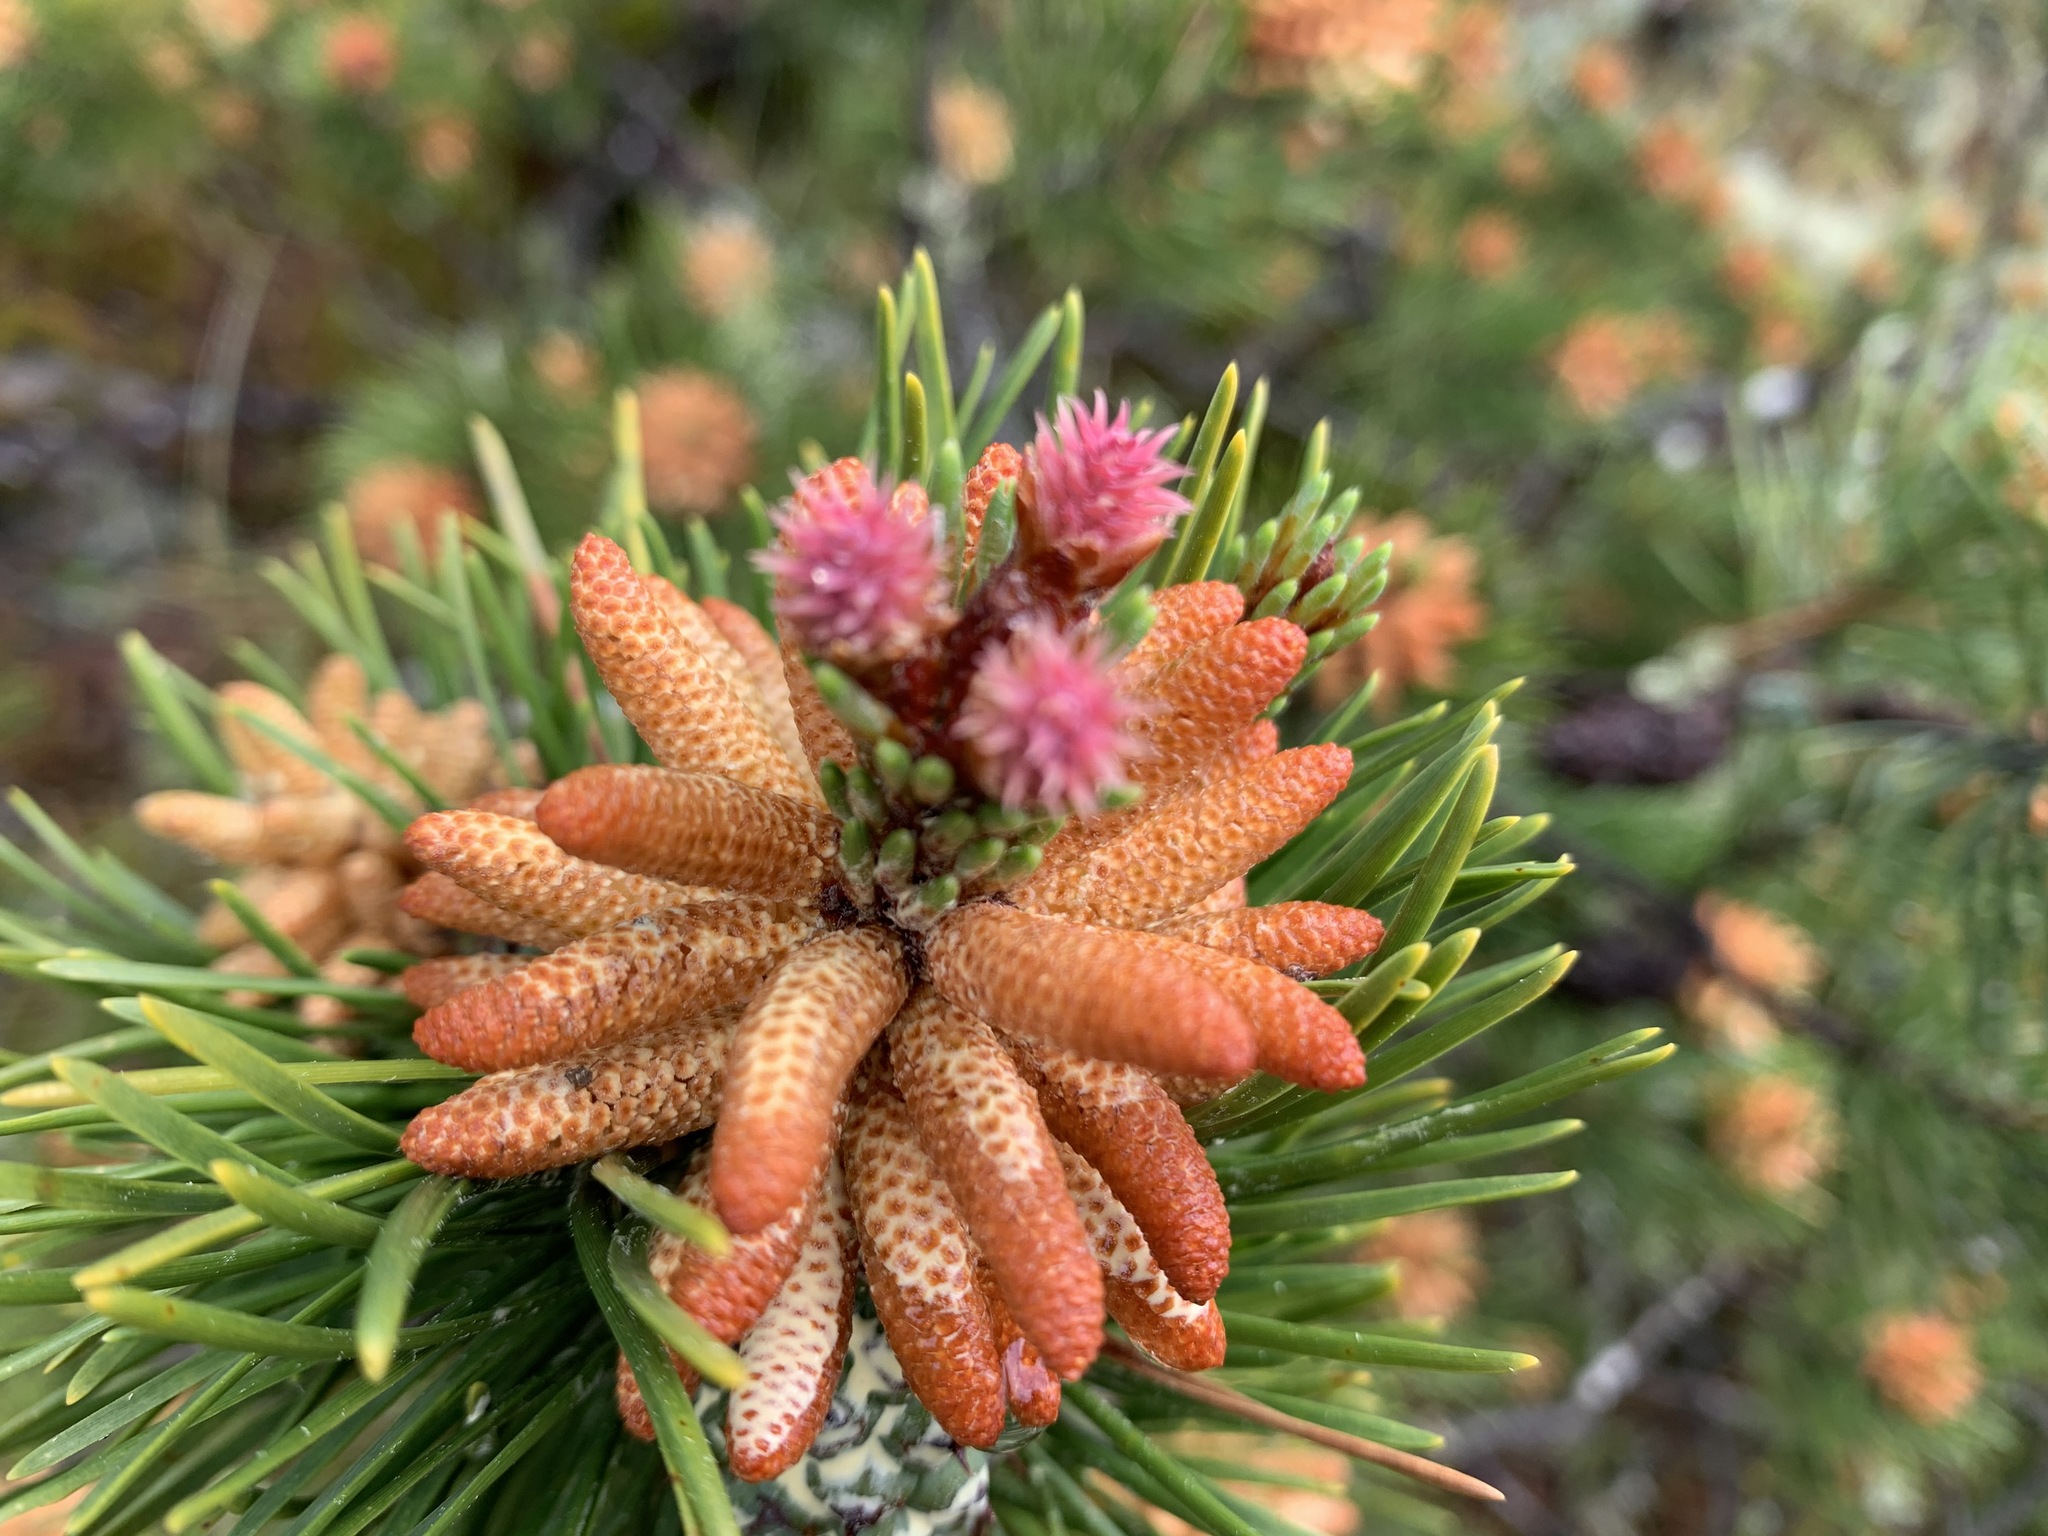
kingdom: Plantae
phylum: Tracheophyta
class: Pinopsida
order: Pinales
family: Pinaceae
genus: Pinus
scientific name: Pinus contorta
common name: Lodgepole pine
